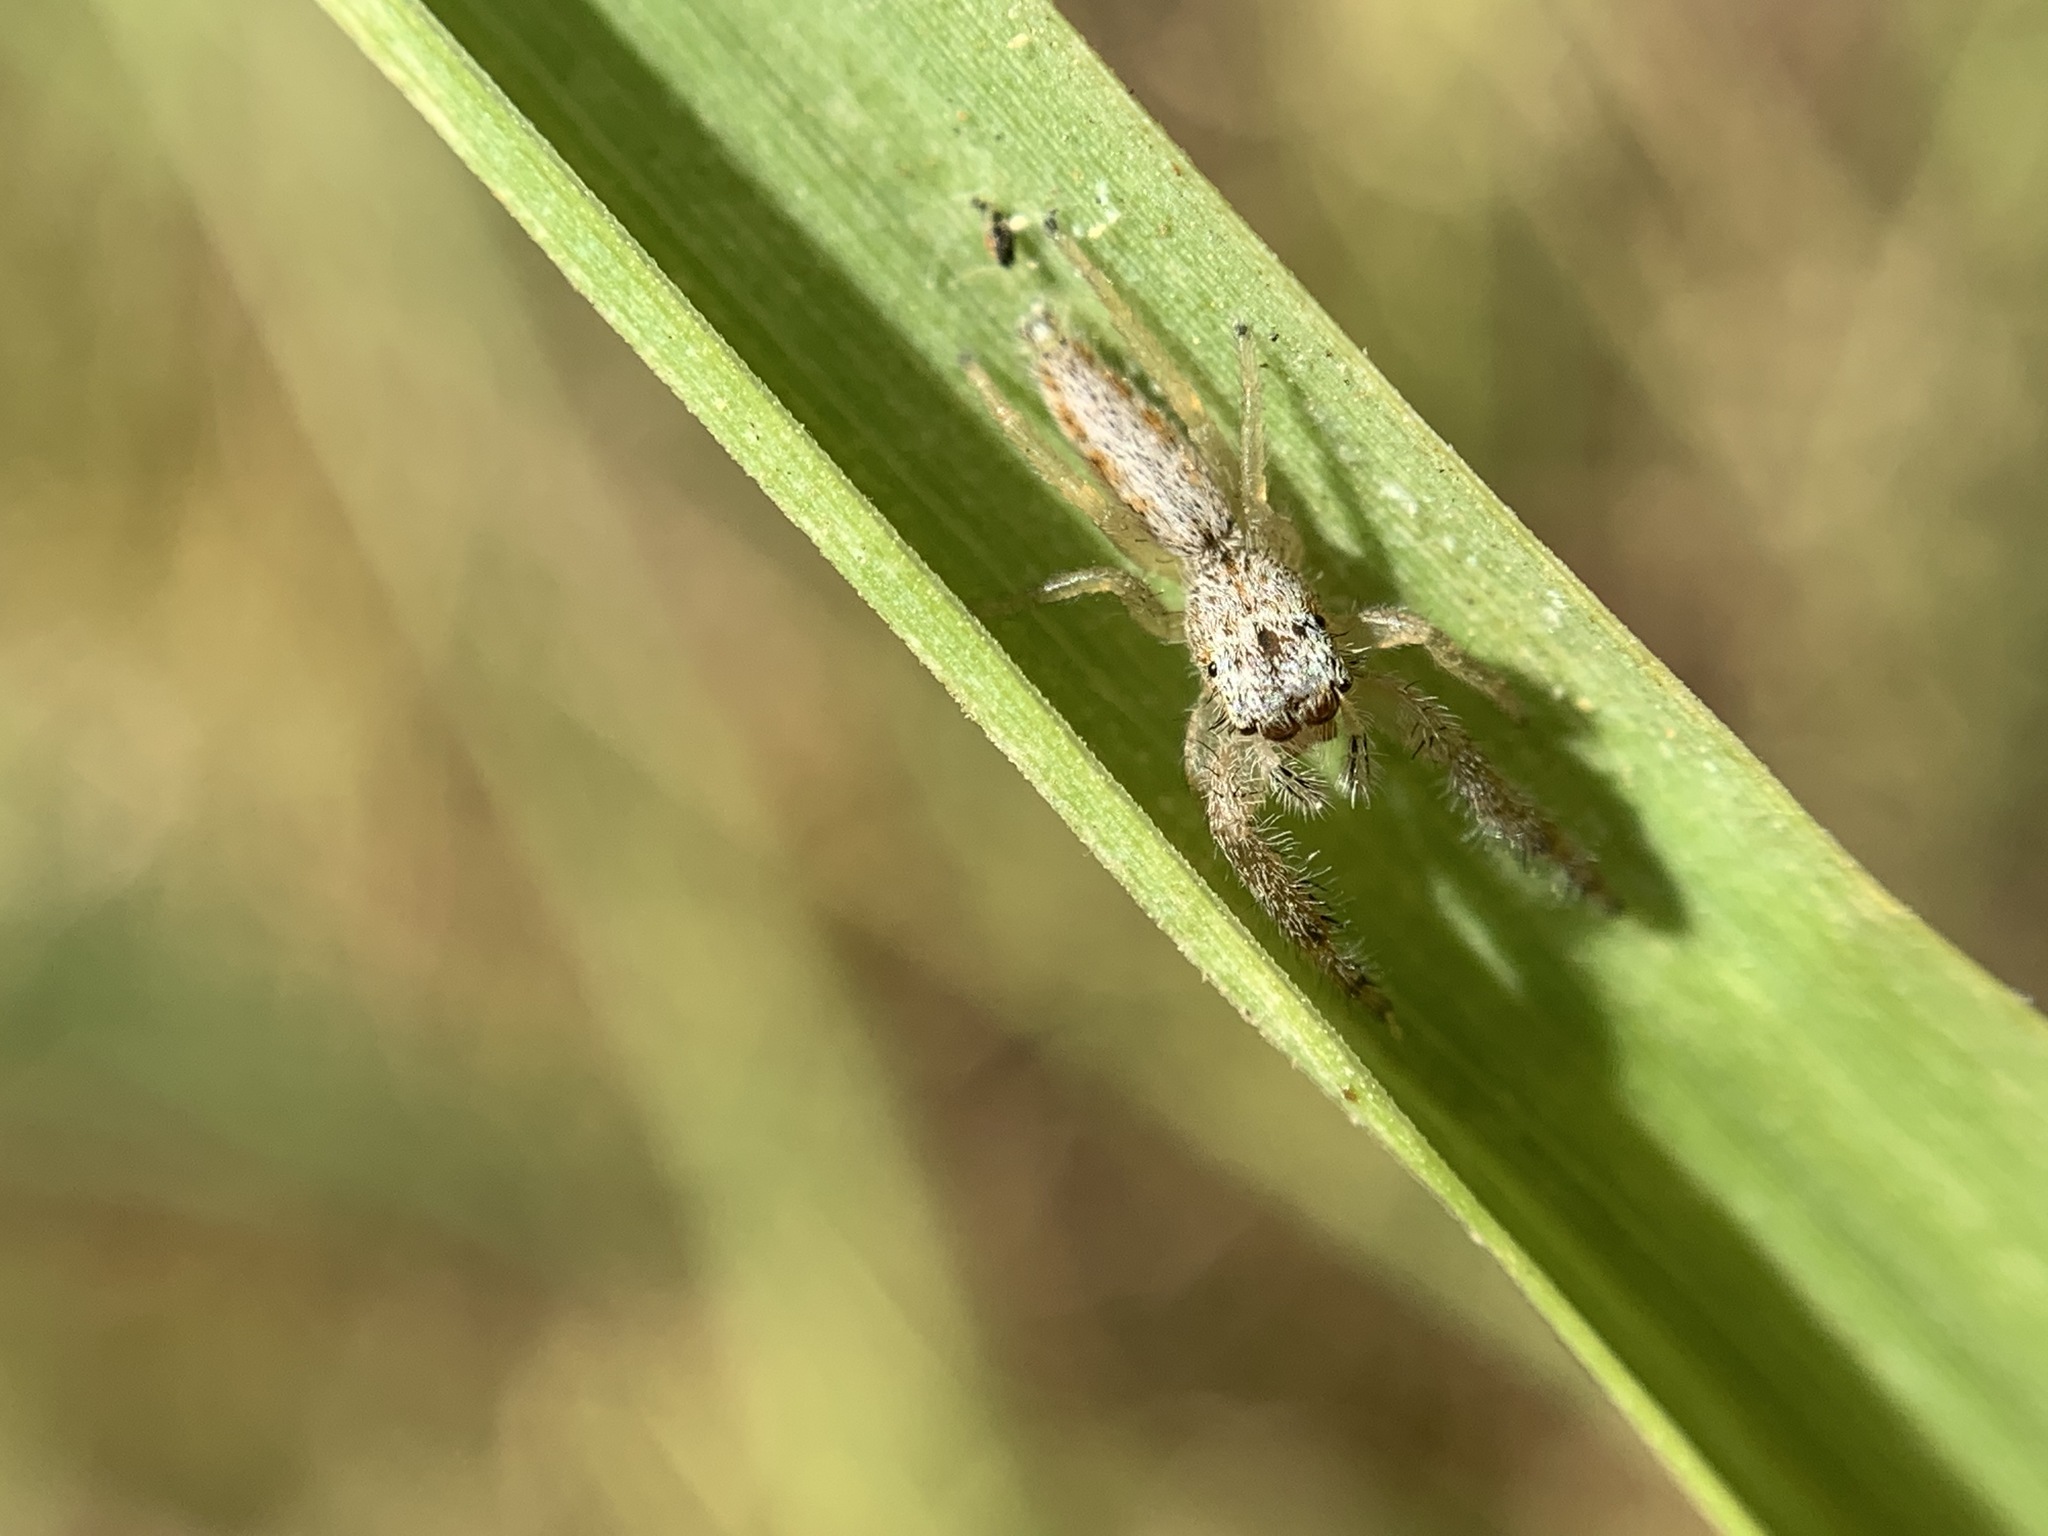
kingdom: Animalia
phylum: Arthropoda
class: Arachnida
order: Araneae
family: Salticidae
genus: Marpissa
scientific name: Marpissa robusta
